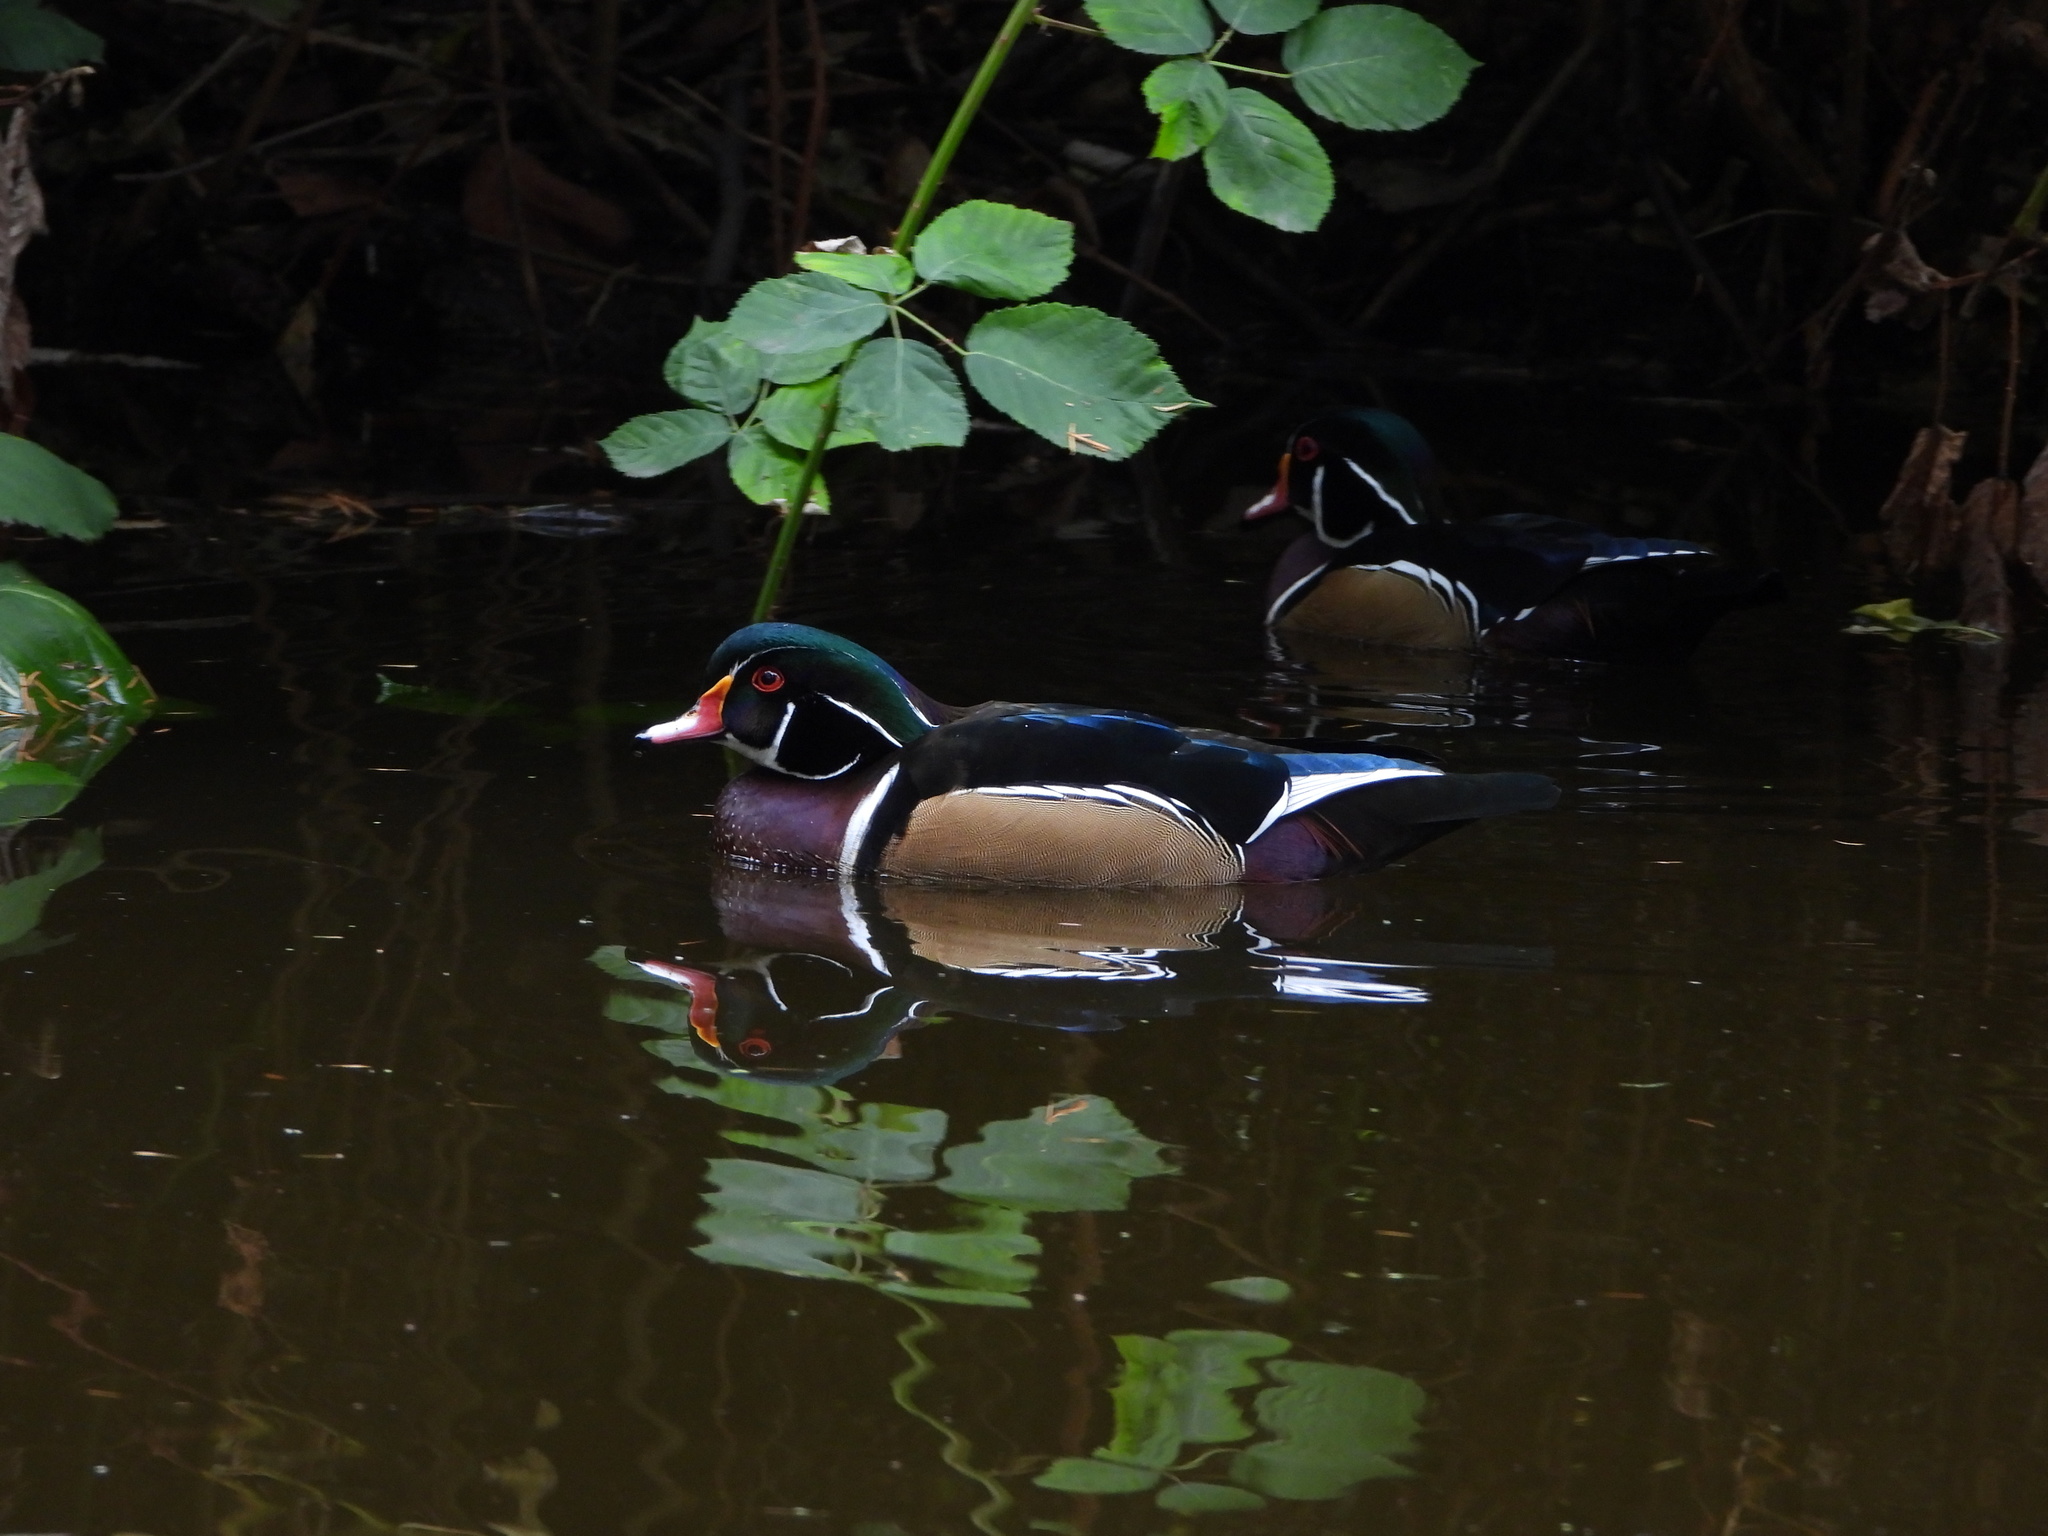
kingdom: Animalia
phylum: Chordata
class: Aves
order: Anseriformes
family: Anatidae
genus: Aix
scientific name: Aix sponsa
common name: Wood duck
